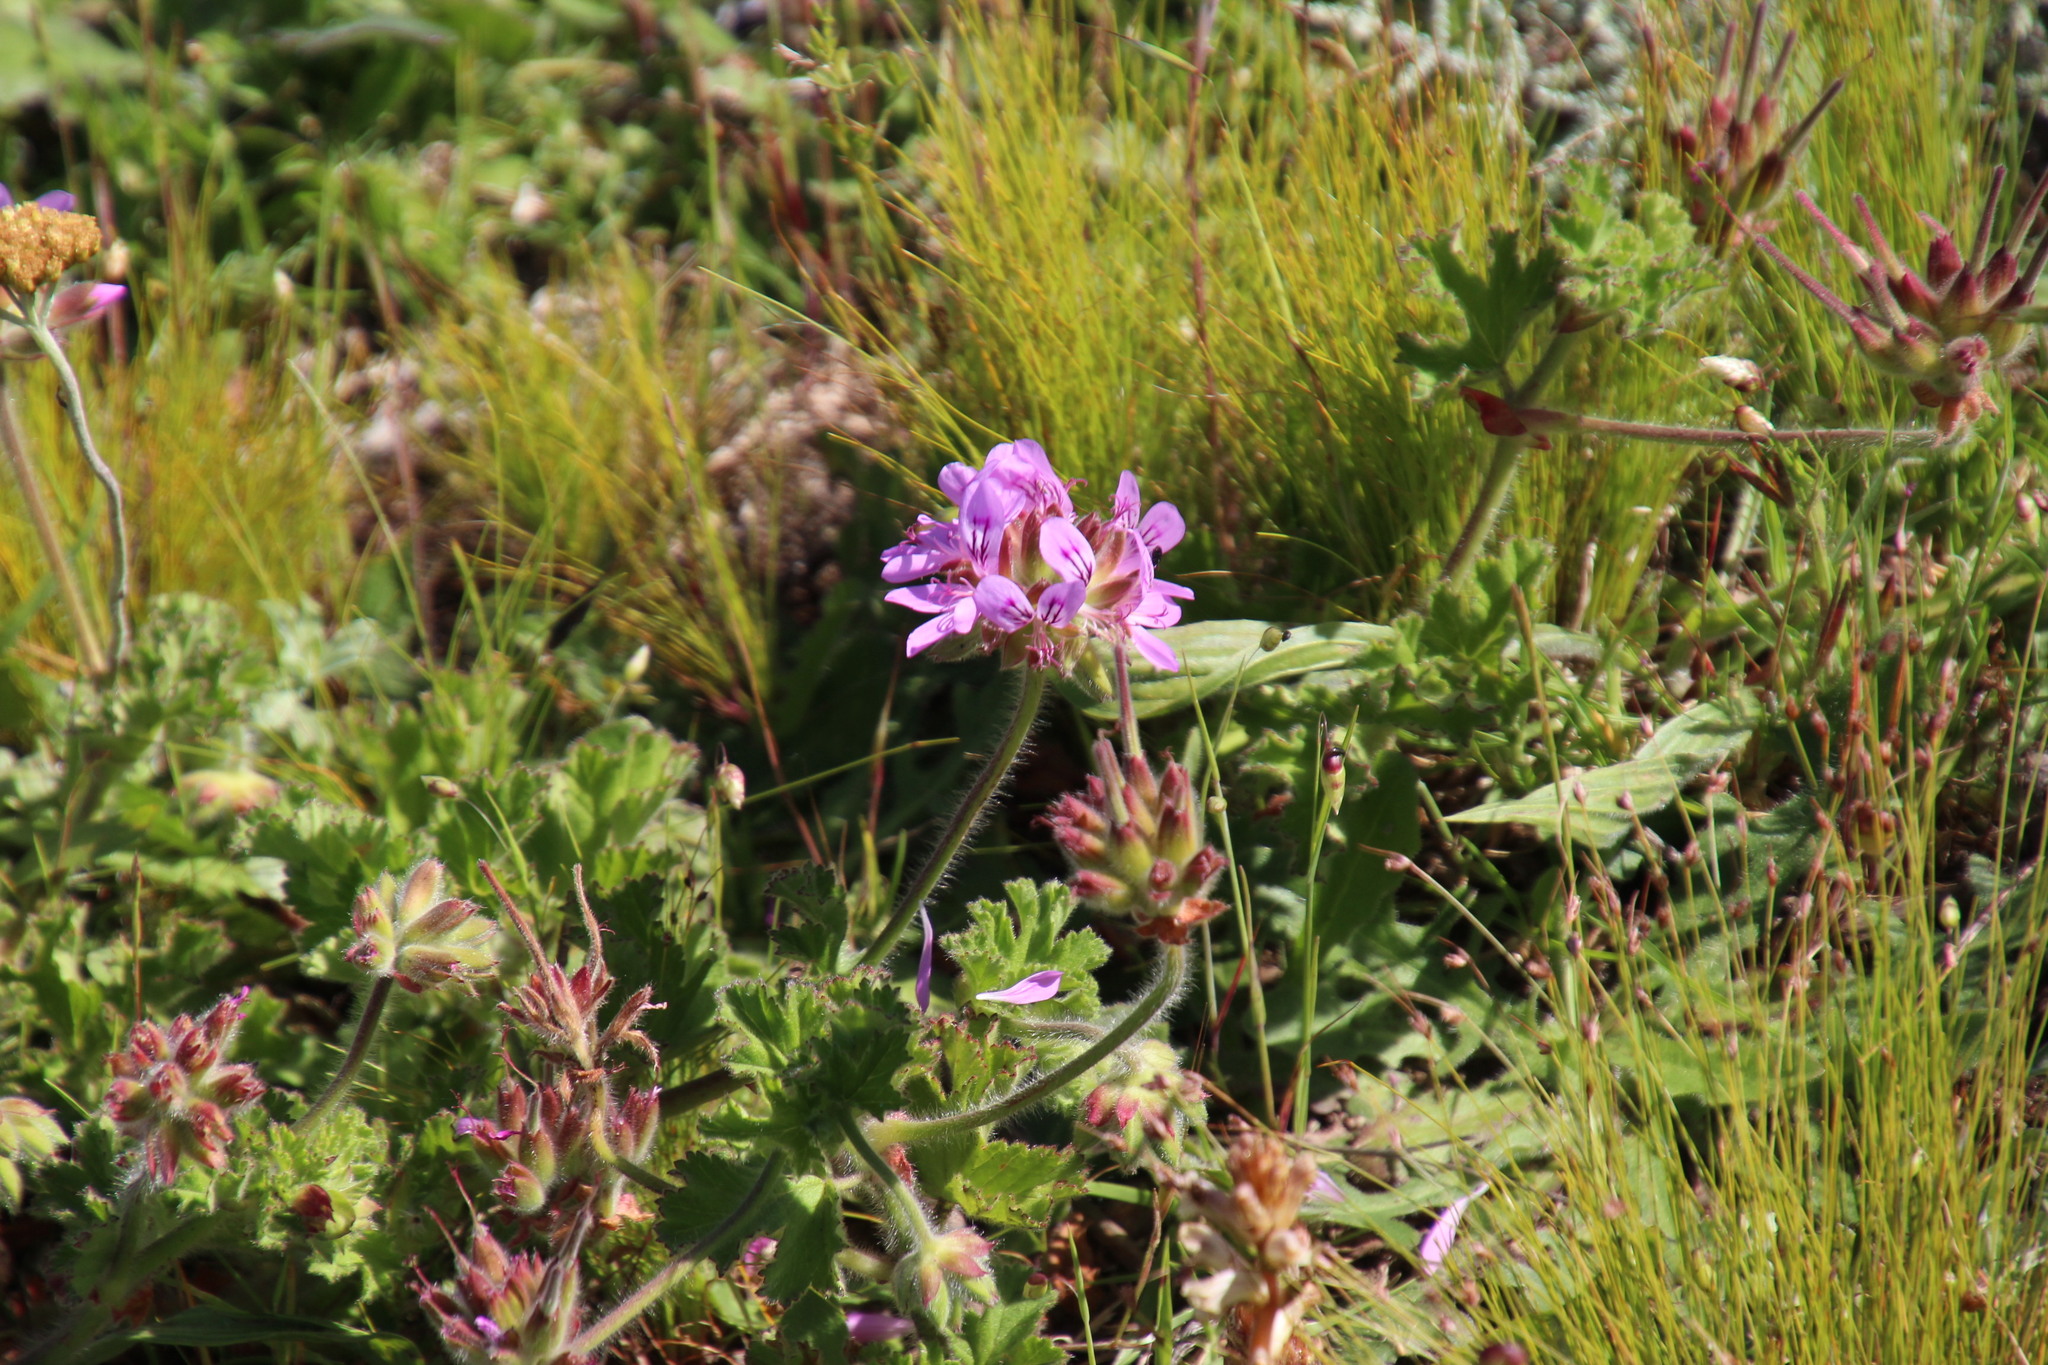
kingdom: Plantae
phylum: Tracheophyta
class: Magnoliopsida
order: Geraniales
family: Geraniaceae
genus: Pelargonium
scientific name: Pelargonium capitatum
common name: Rose scented geranium
